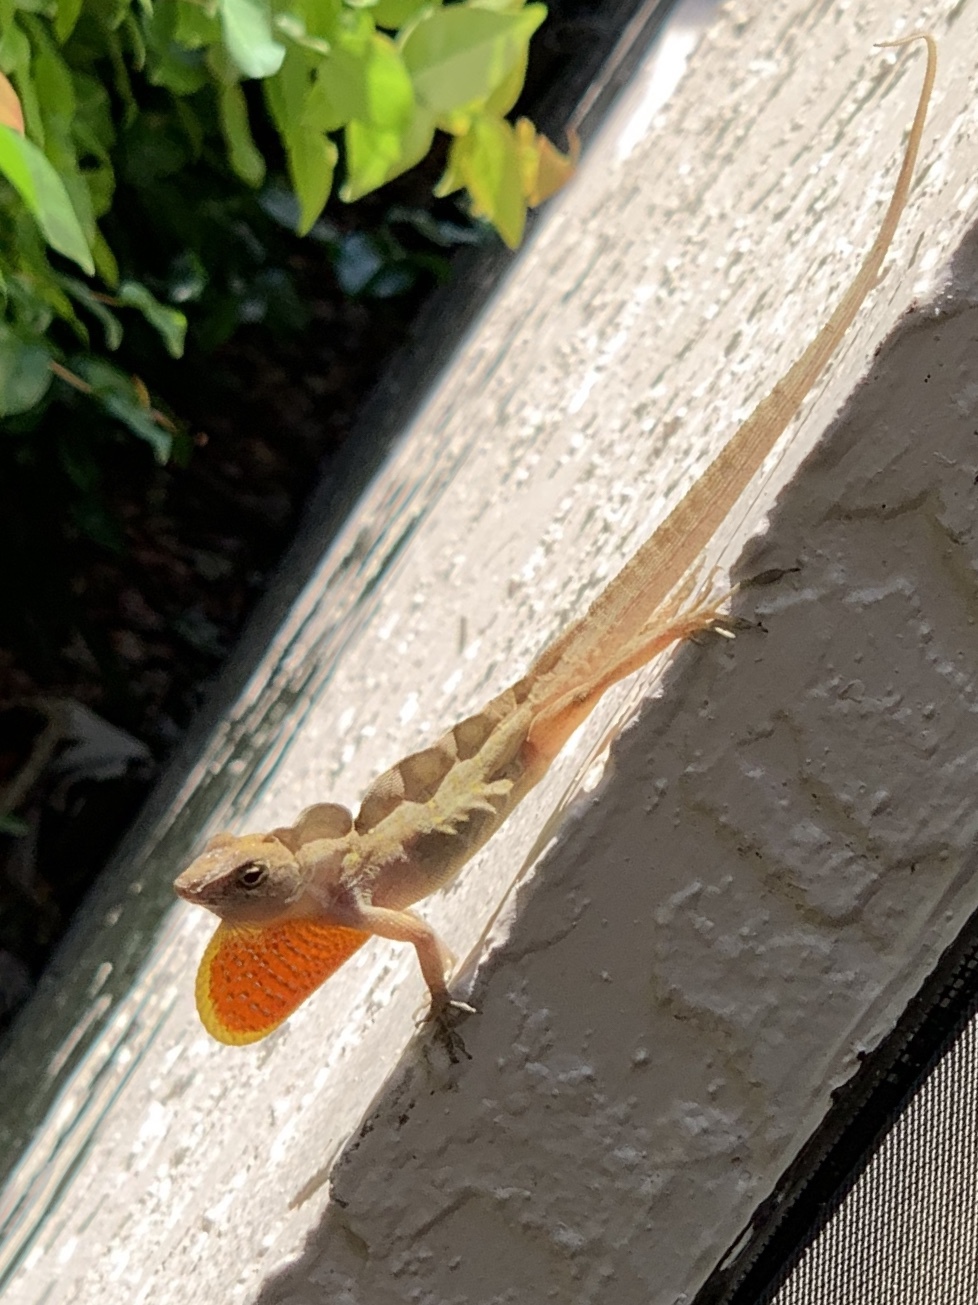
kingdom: Animalia
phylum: Chordata
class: Squamata
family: Dactyloidae
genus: Anolis
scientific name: Anolis sagrei
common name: Brown anole
